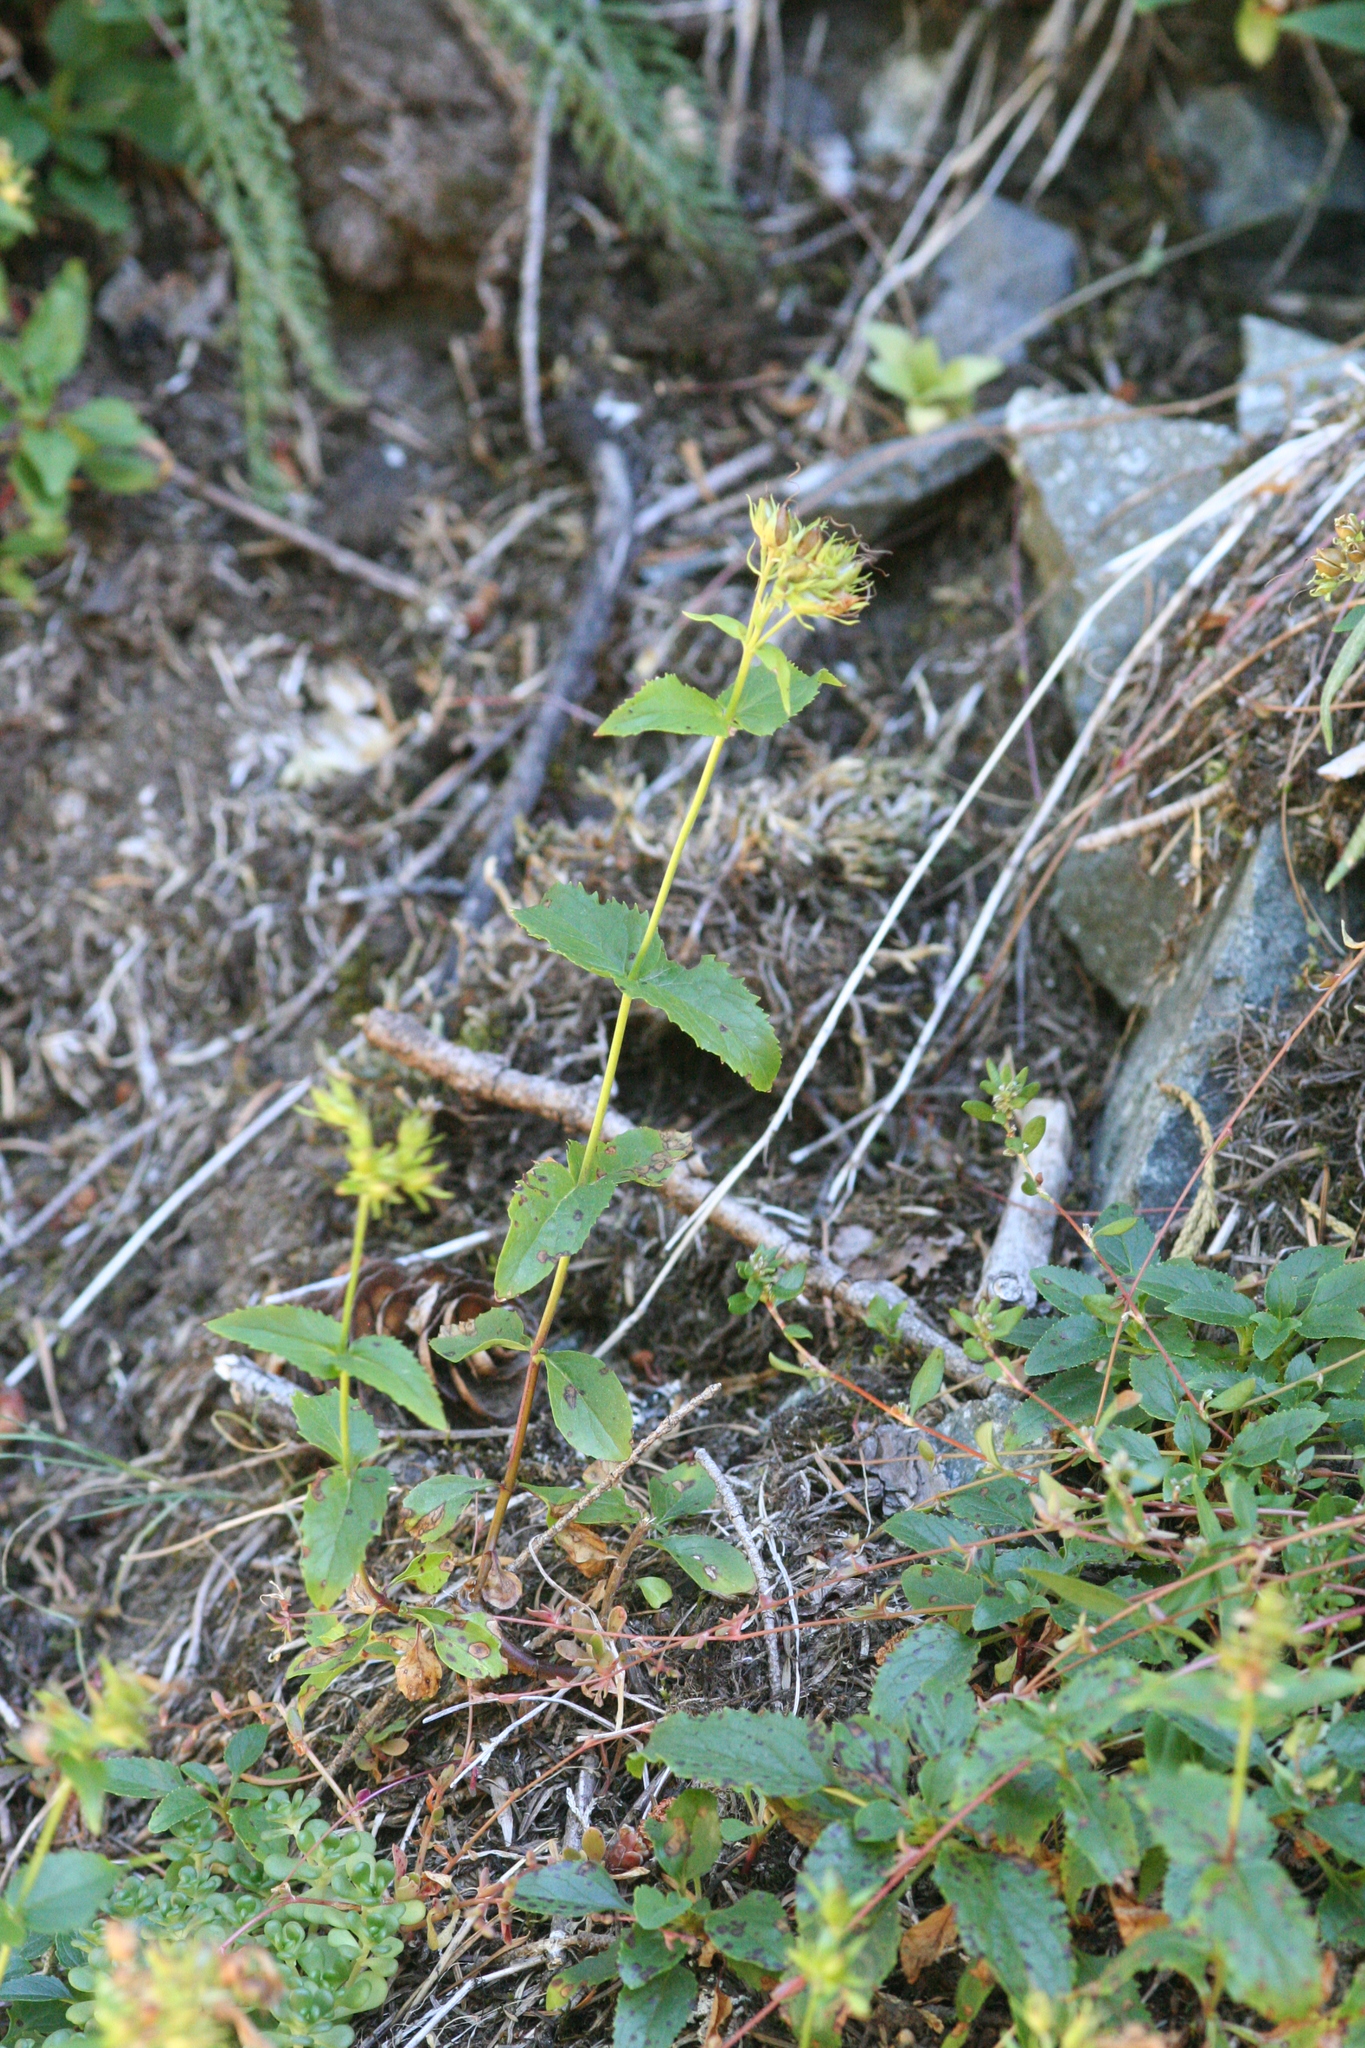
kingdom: Plantae
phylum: Tracheophyta
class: Magnoliopsida
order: Lamiales
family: Plantaginaceae
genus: Penstemon
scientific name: Penstemon serrulatus
